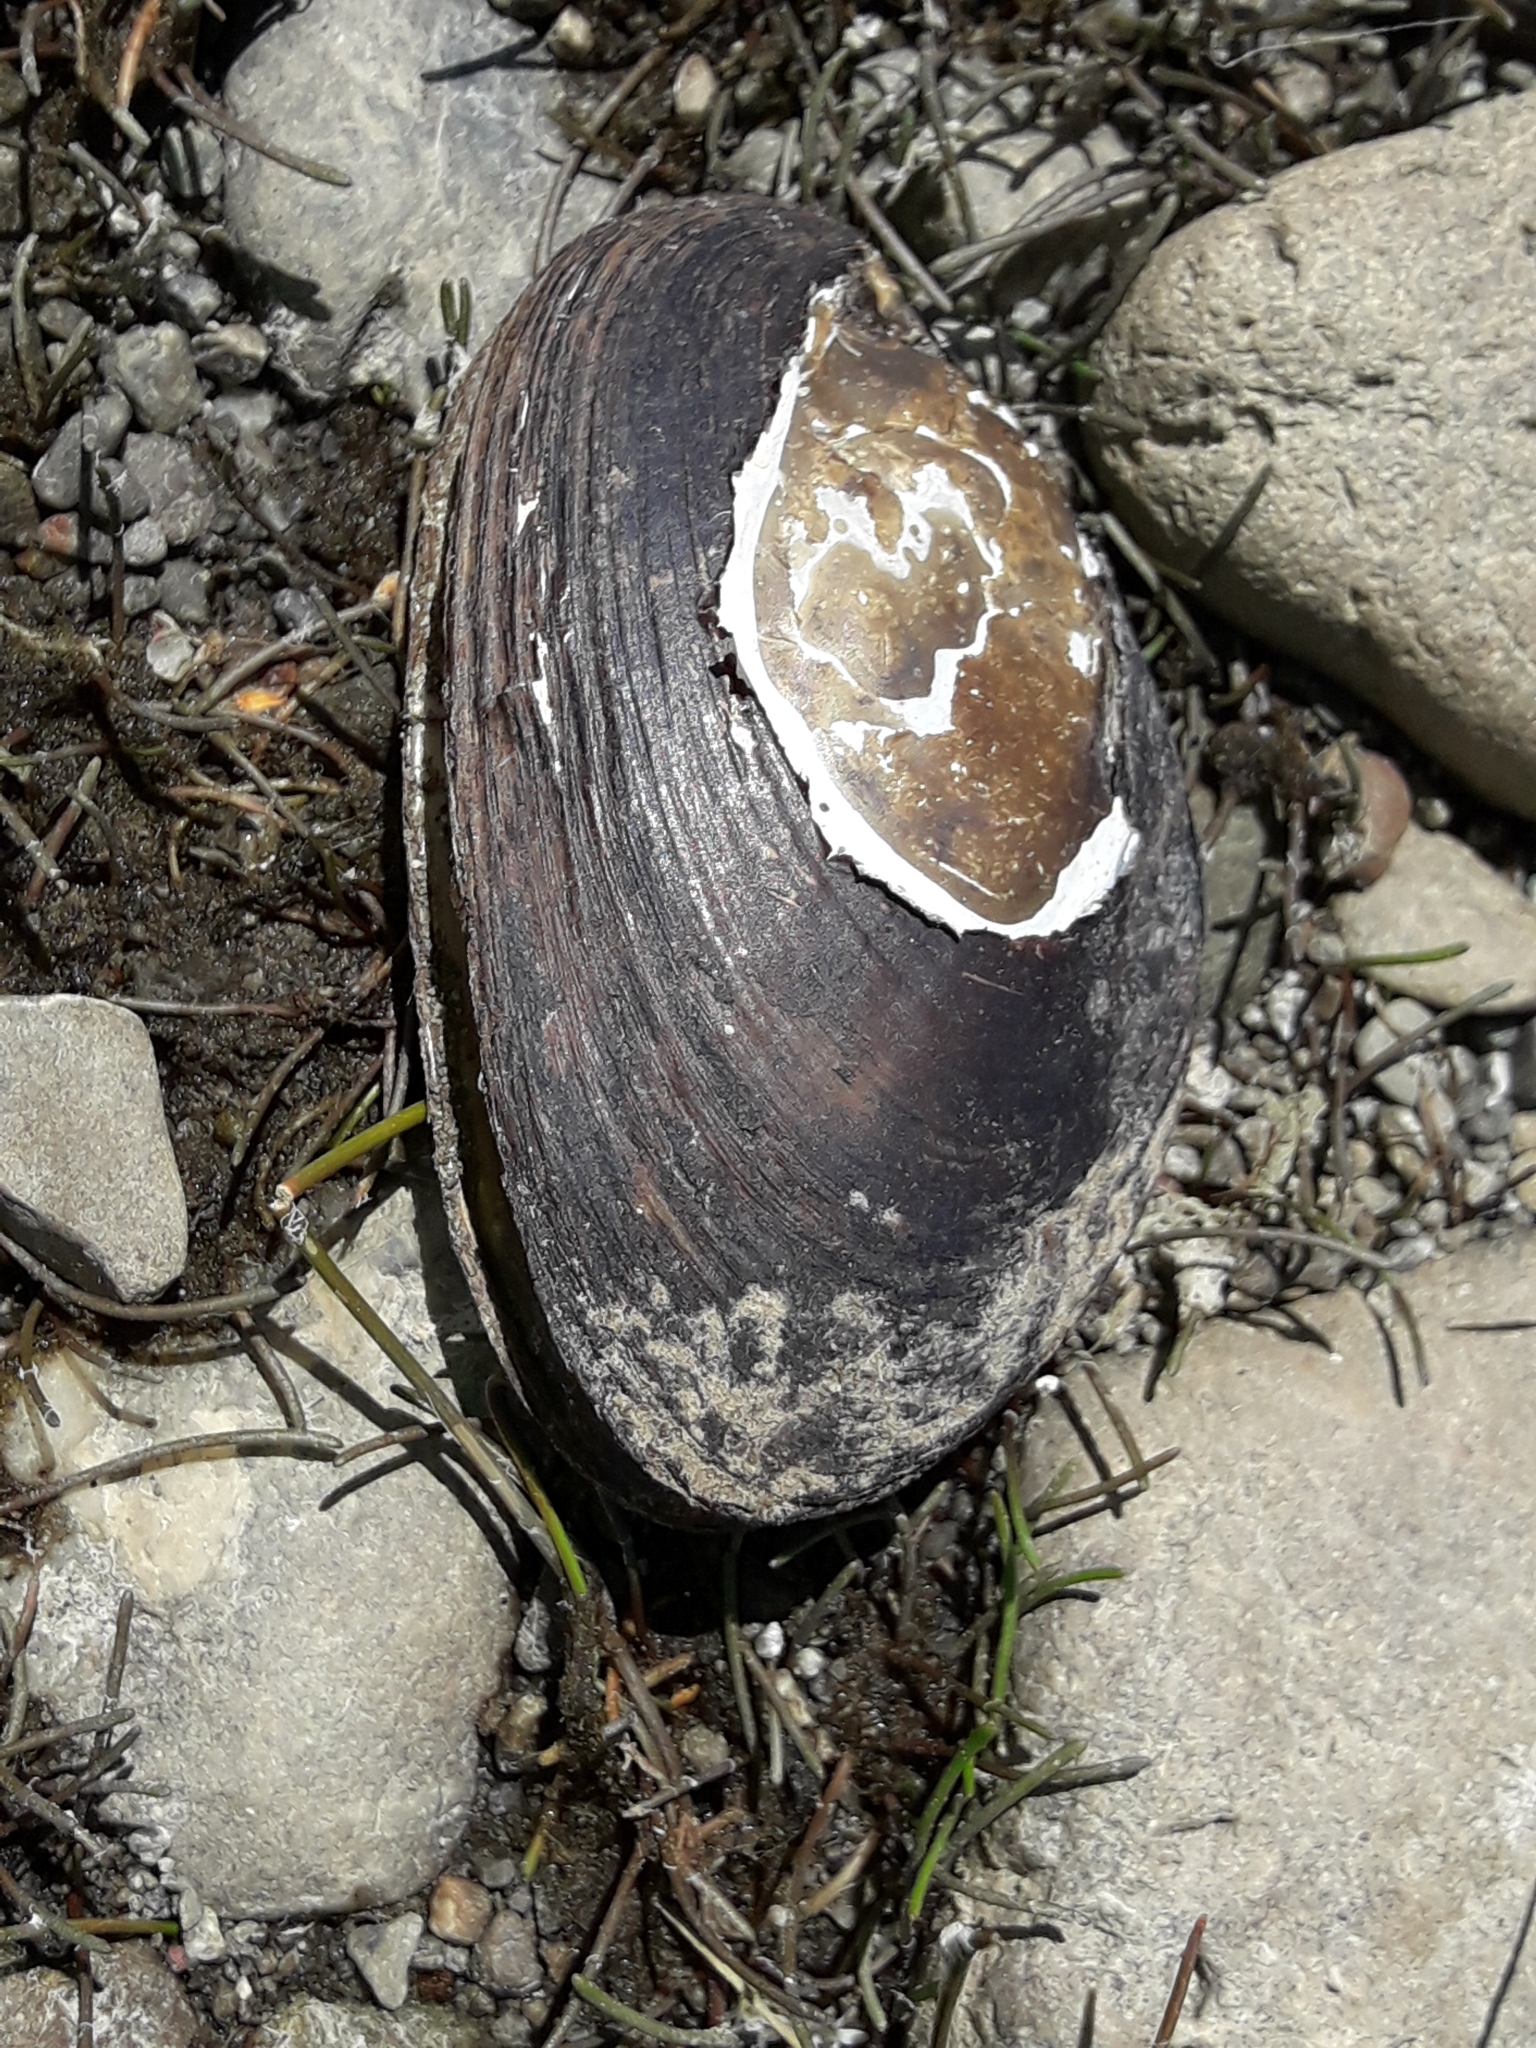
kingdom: Animalia
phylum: Mollusca
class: Bivalvia
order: Unionida
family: Hyriidae
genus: Echyridella
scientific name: Echyridella menziesii
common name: New zealand freshwater mussel
